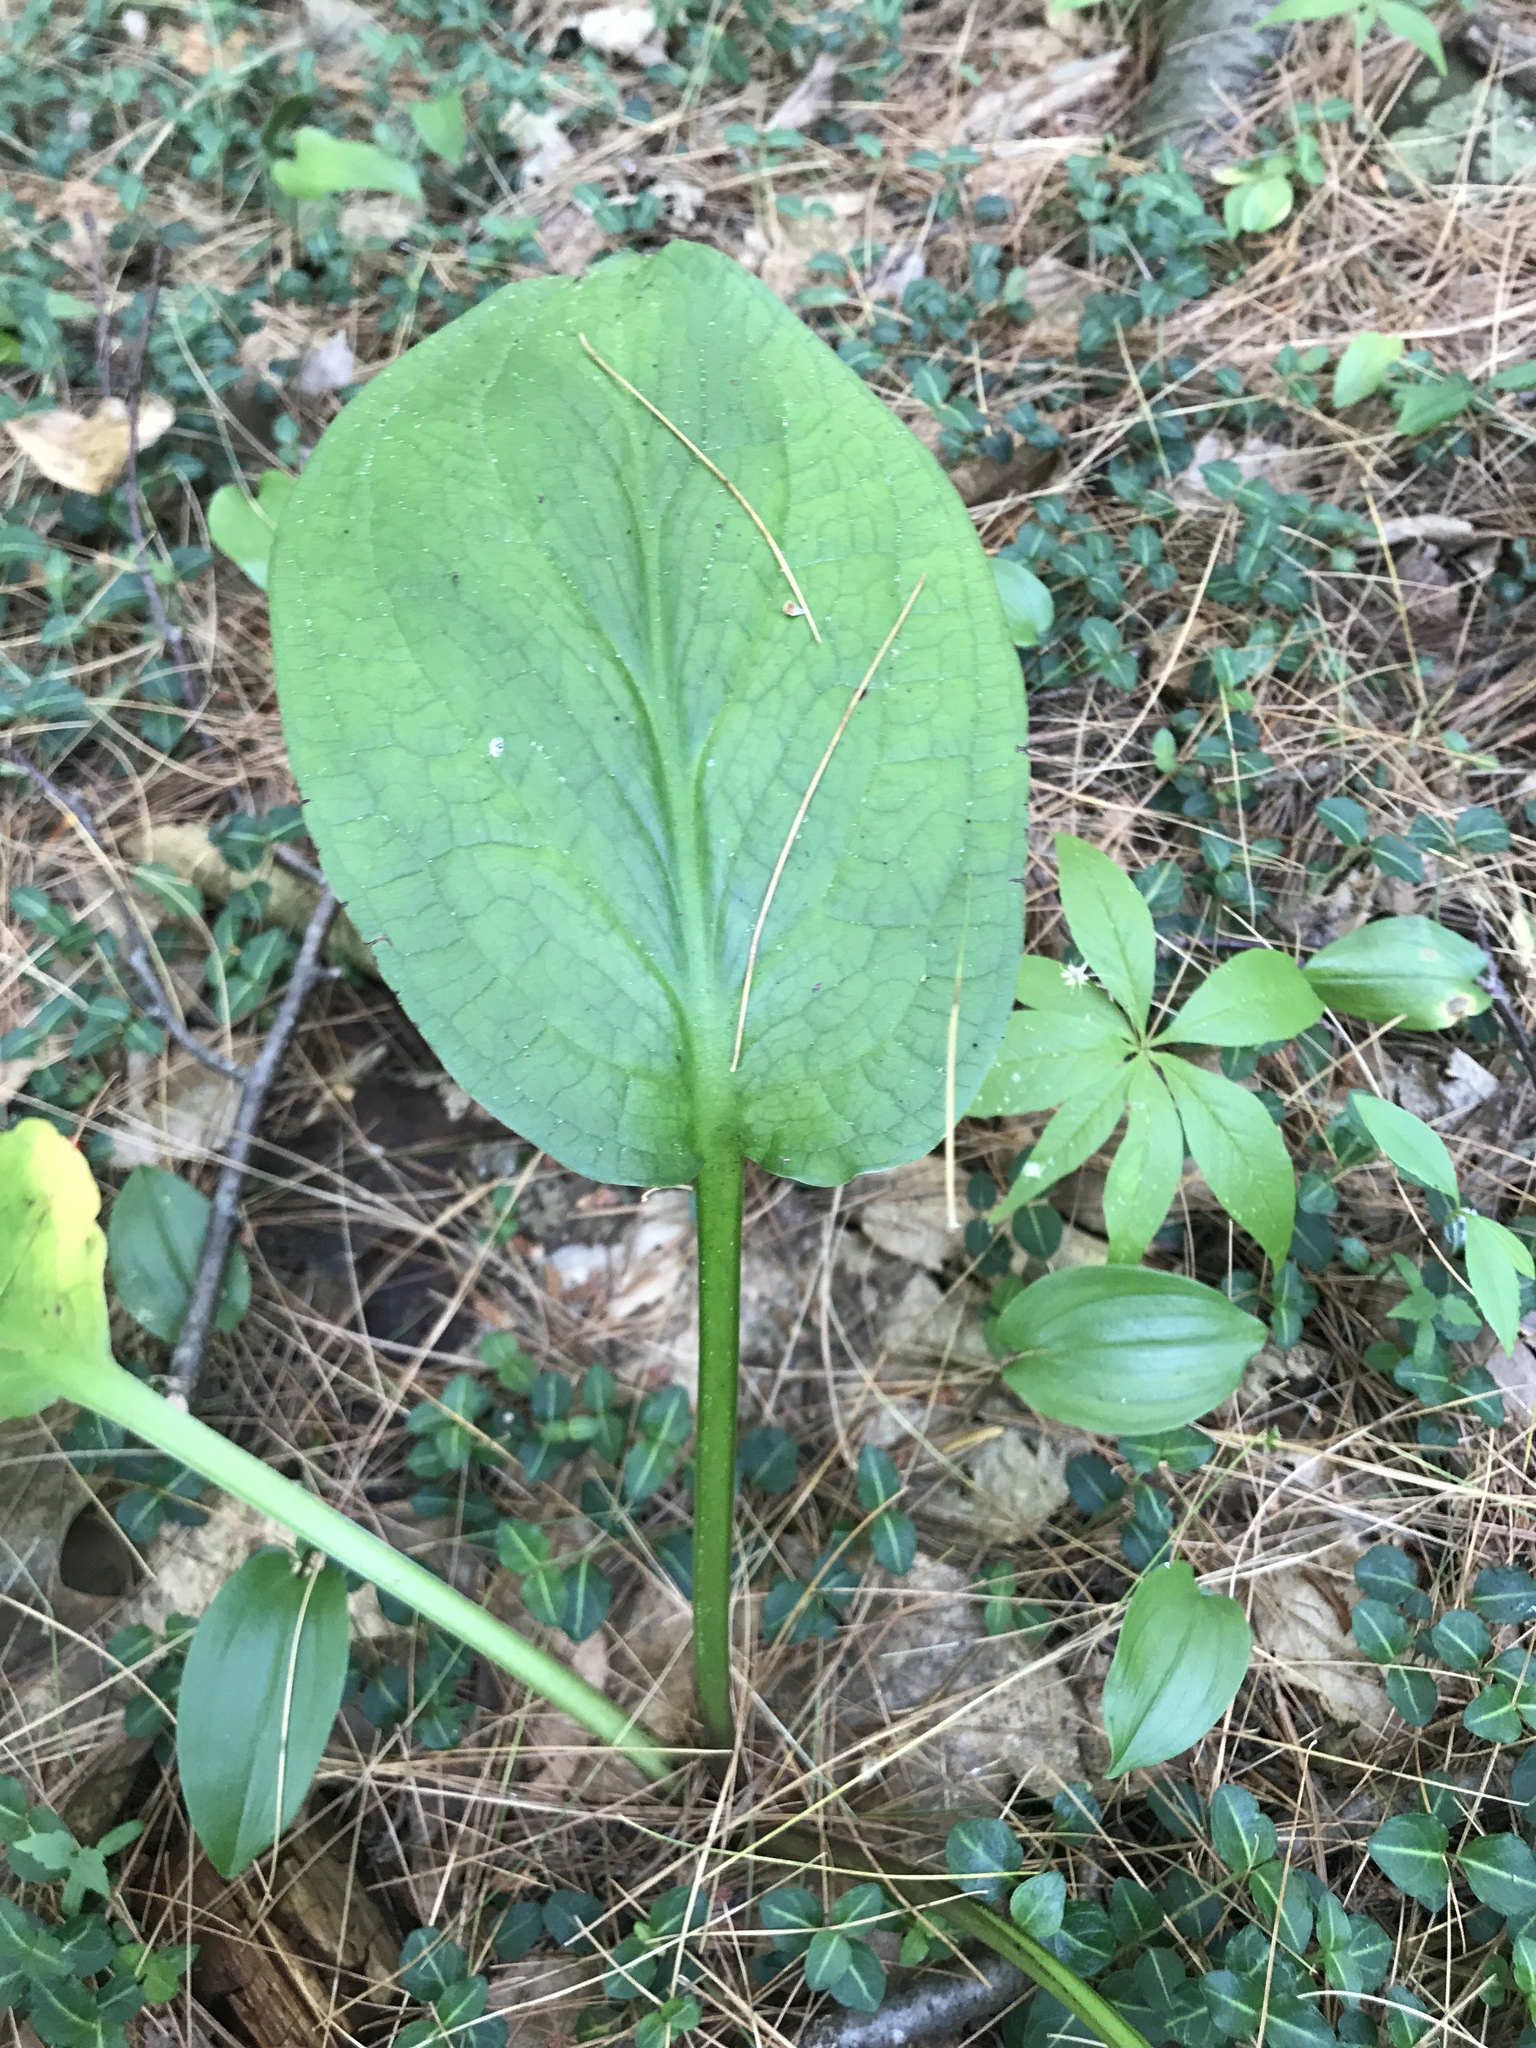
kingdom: Plantae
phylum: Tracheophyta
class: Liliopsida
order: Alismatales
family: Araceae
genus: Symplocarpus
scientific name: Symplocarpus foetidus
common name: Eastern skunk cabbage
